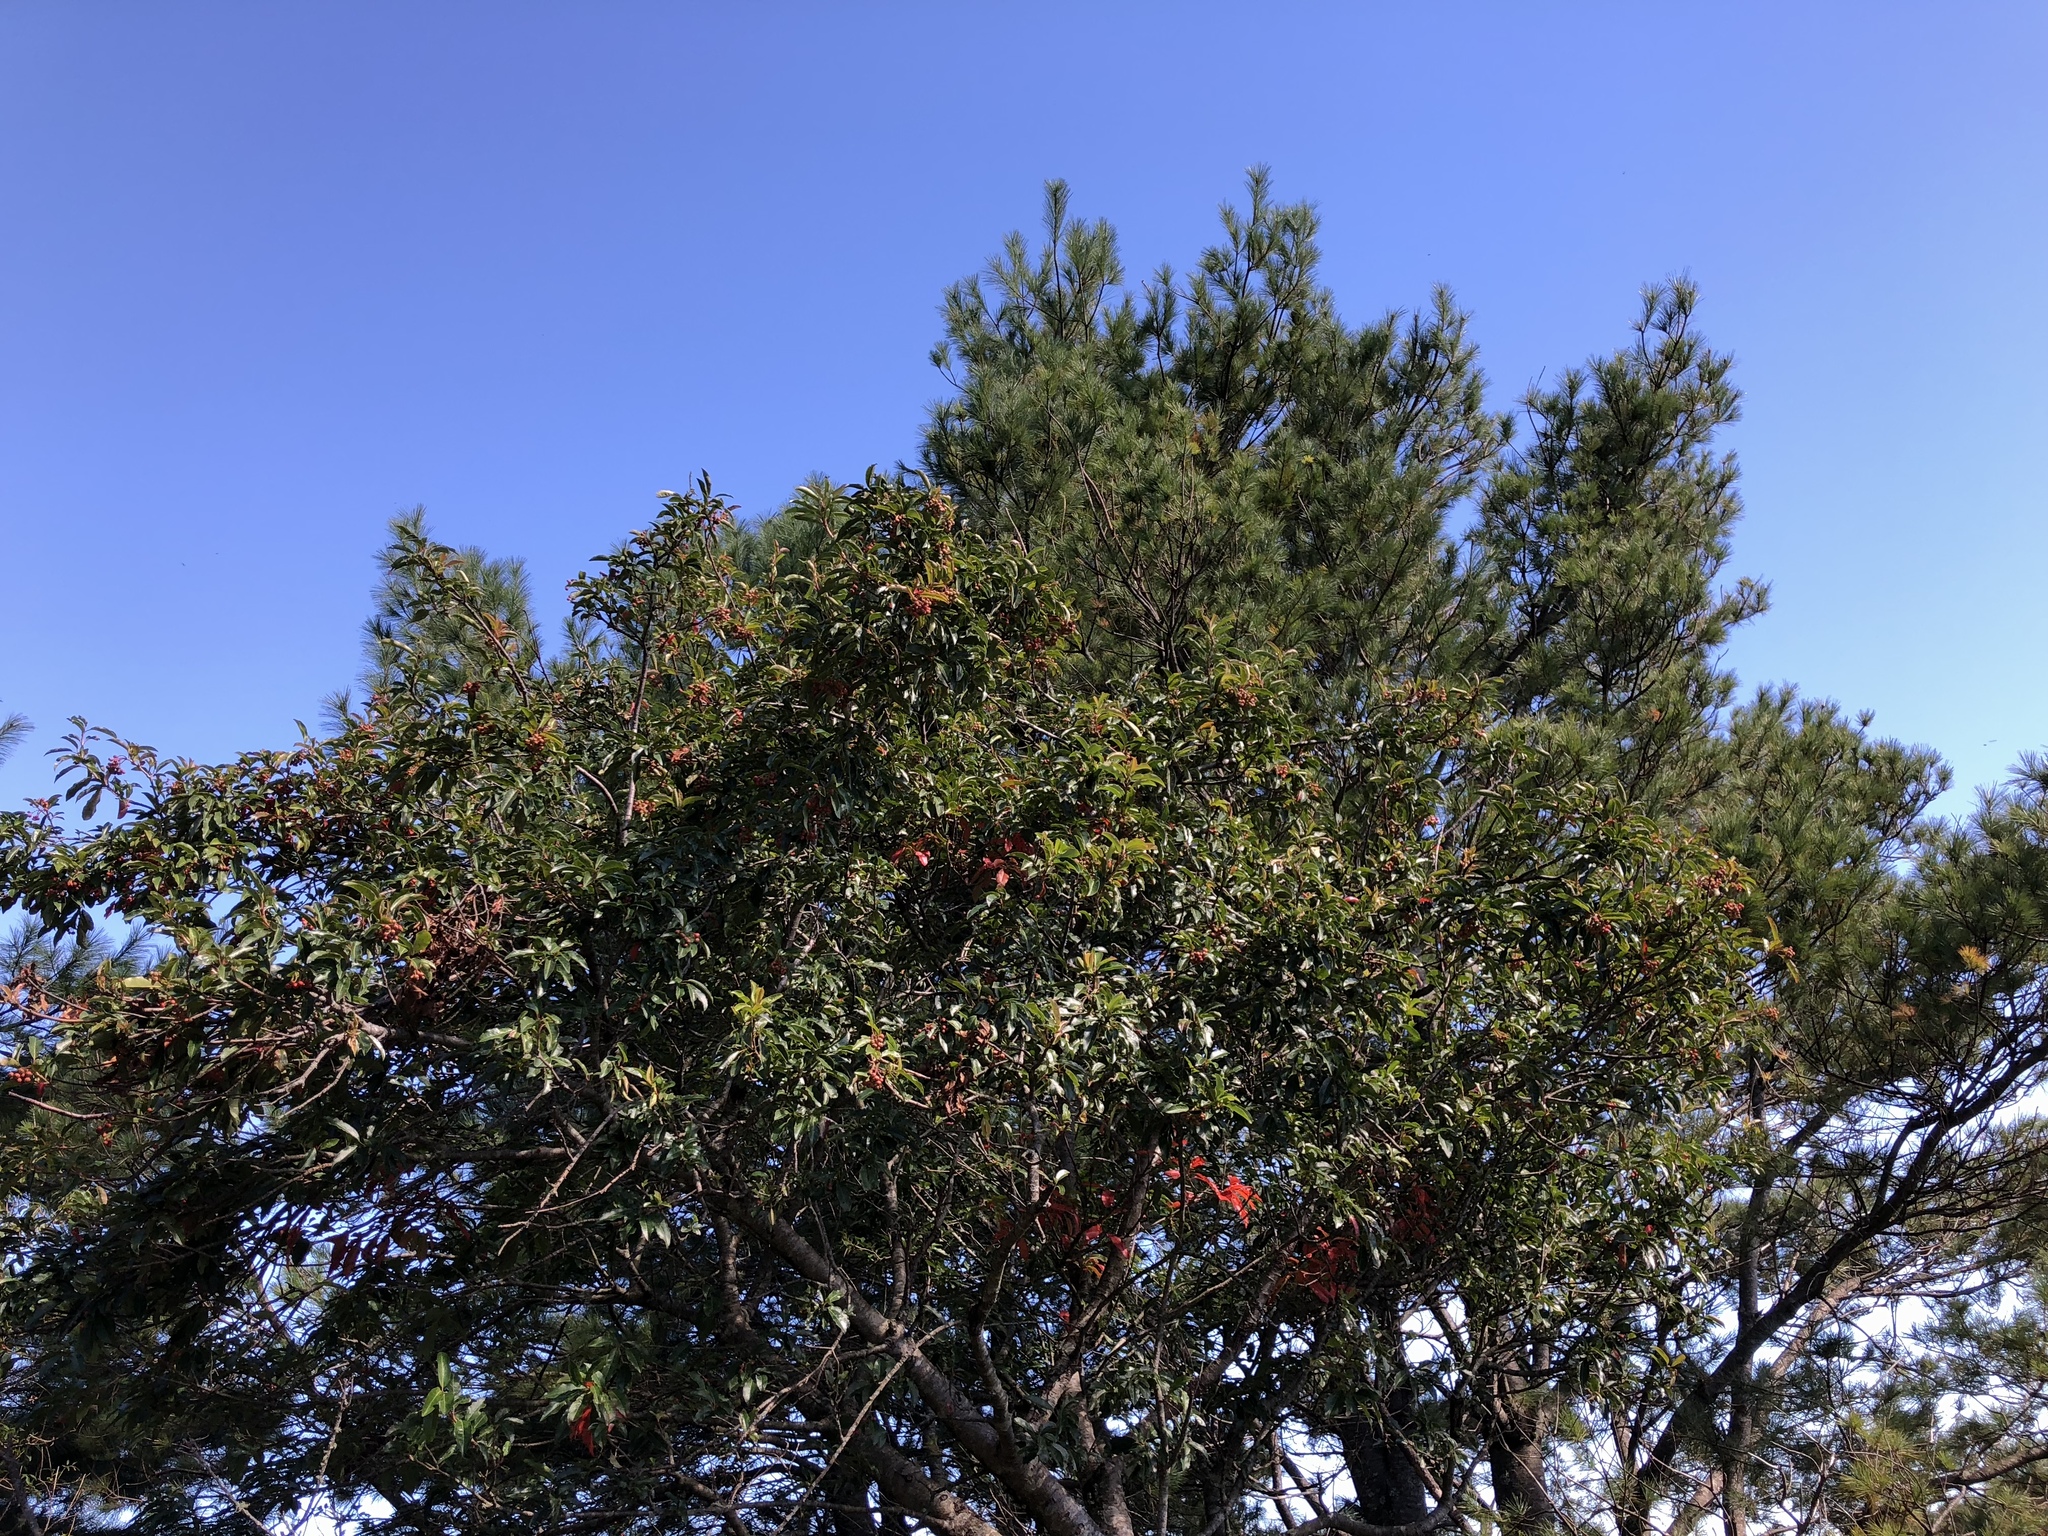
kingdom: Plantae
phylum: Tracheophyta
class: Magnoliopsida
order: Rosales
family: Rosaceae
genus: Stranvaesia
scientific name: Stranvaesia davidiana
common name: Chinese photinia
